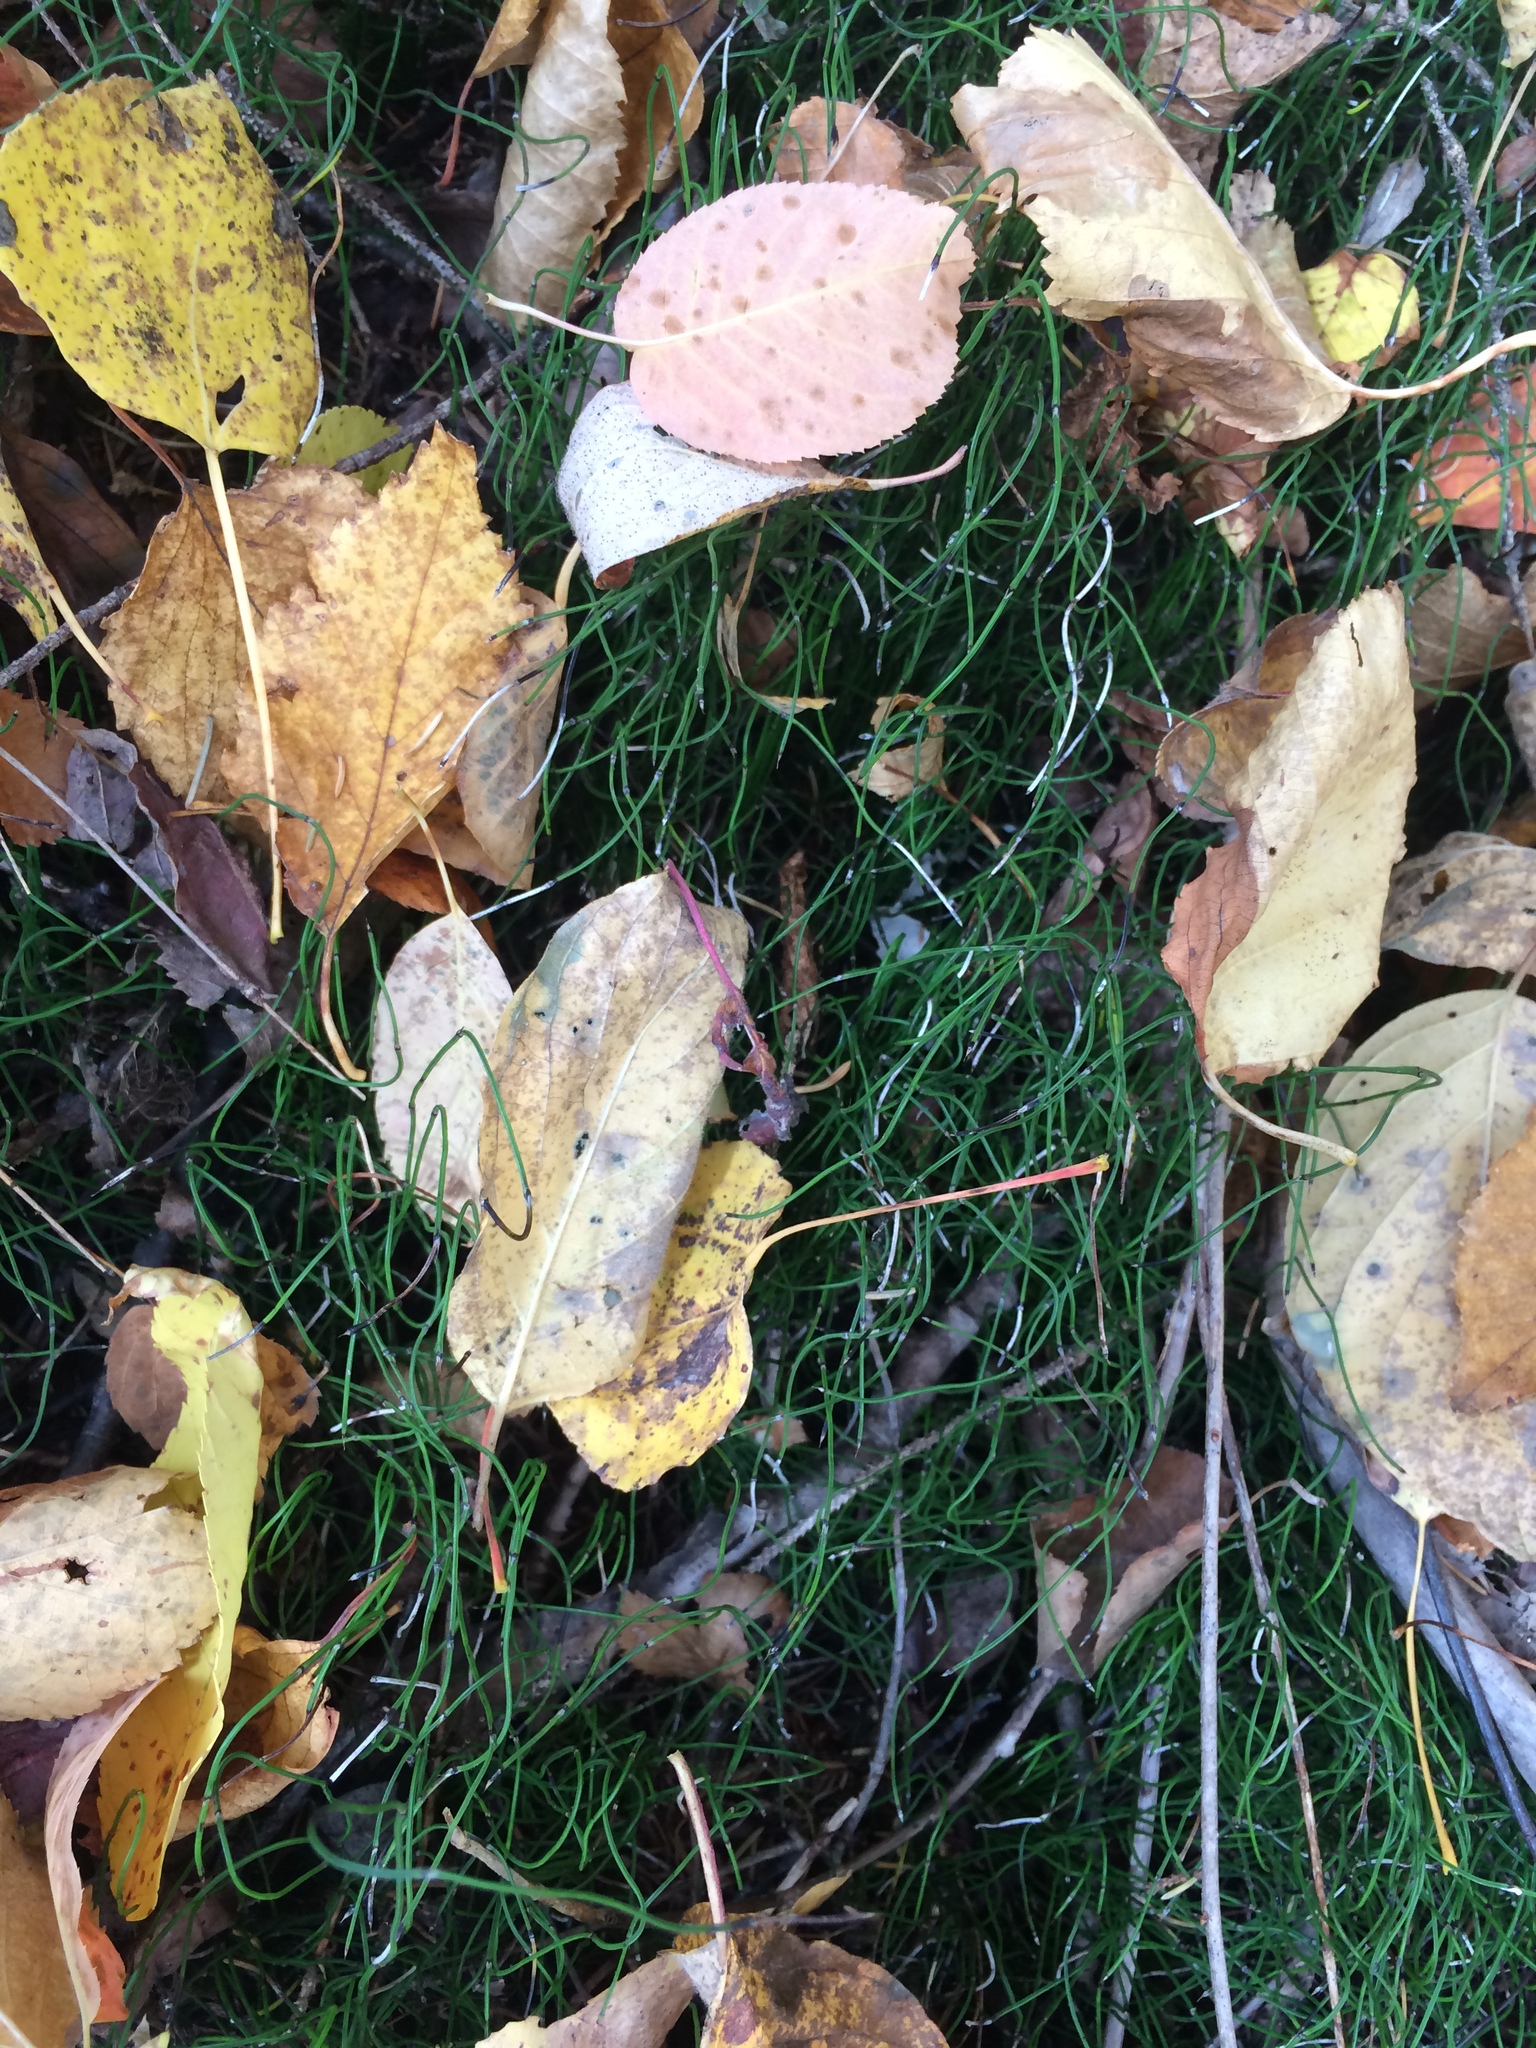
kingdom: Plantae
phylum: Tracheophyta
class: Polypodiopsida
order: Equisetales
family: Equisetaceae
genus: Equisetum
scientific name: Equisetum scirpoides
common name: Delicate horsetail
